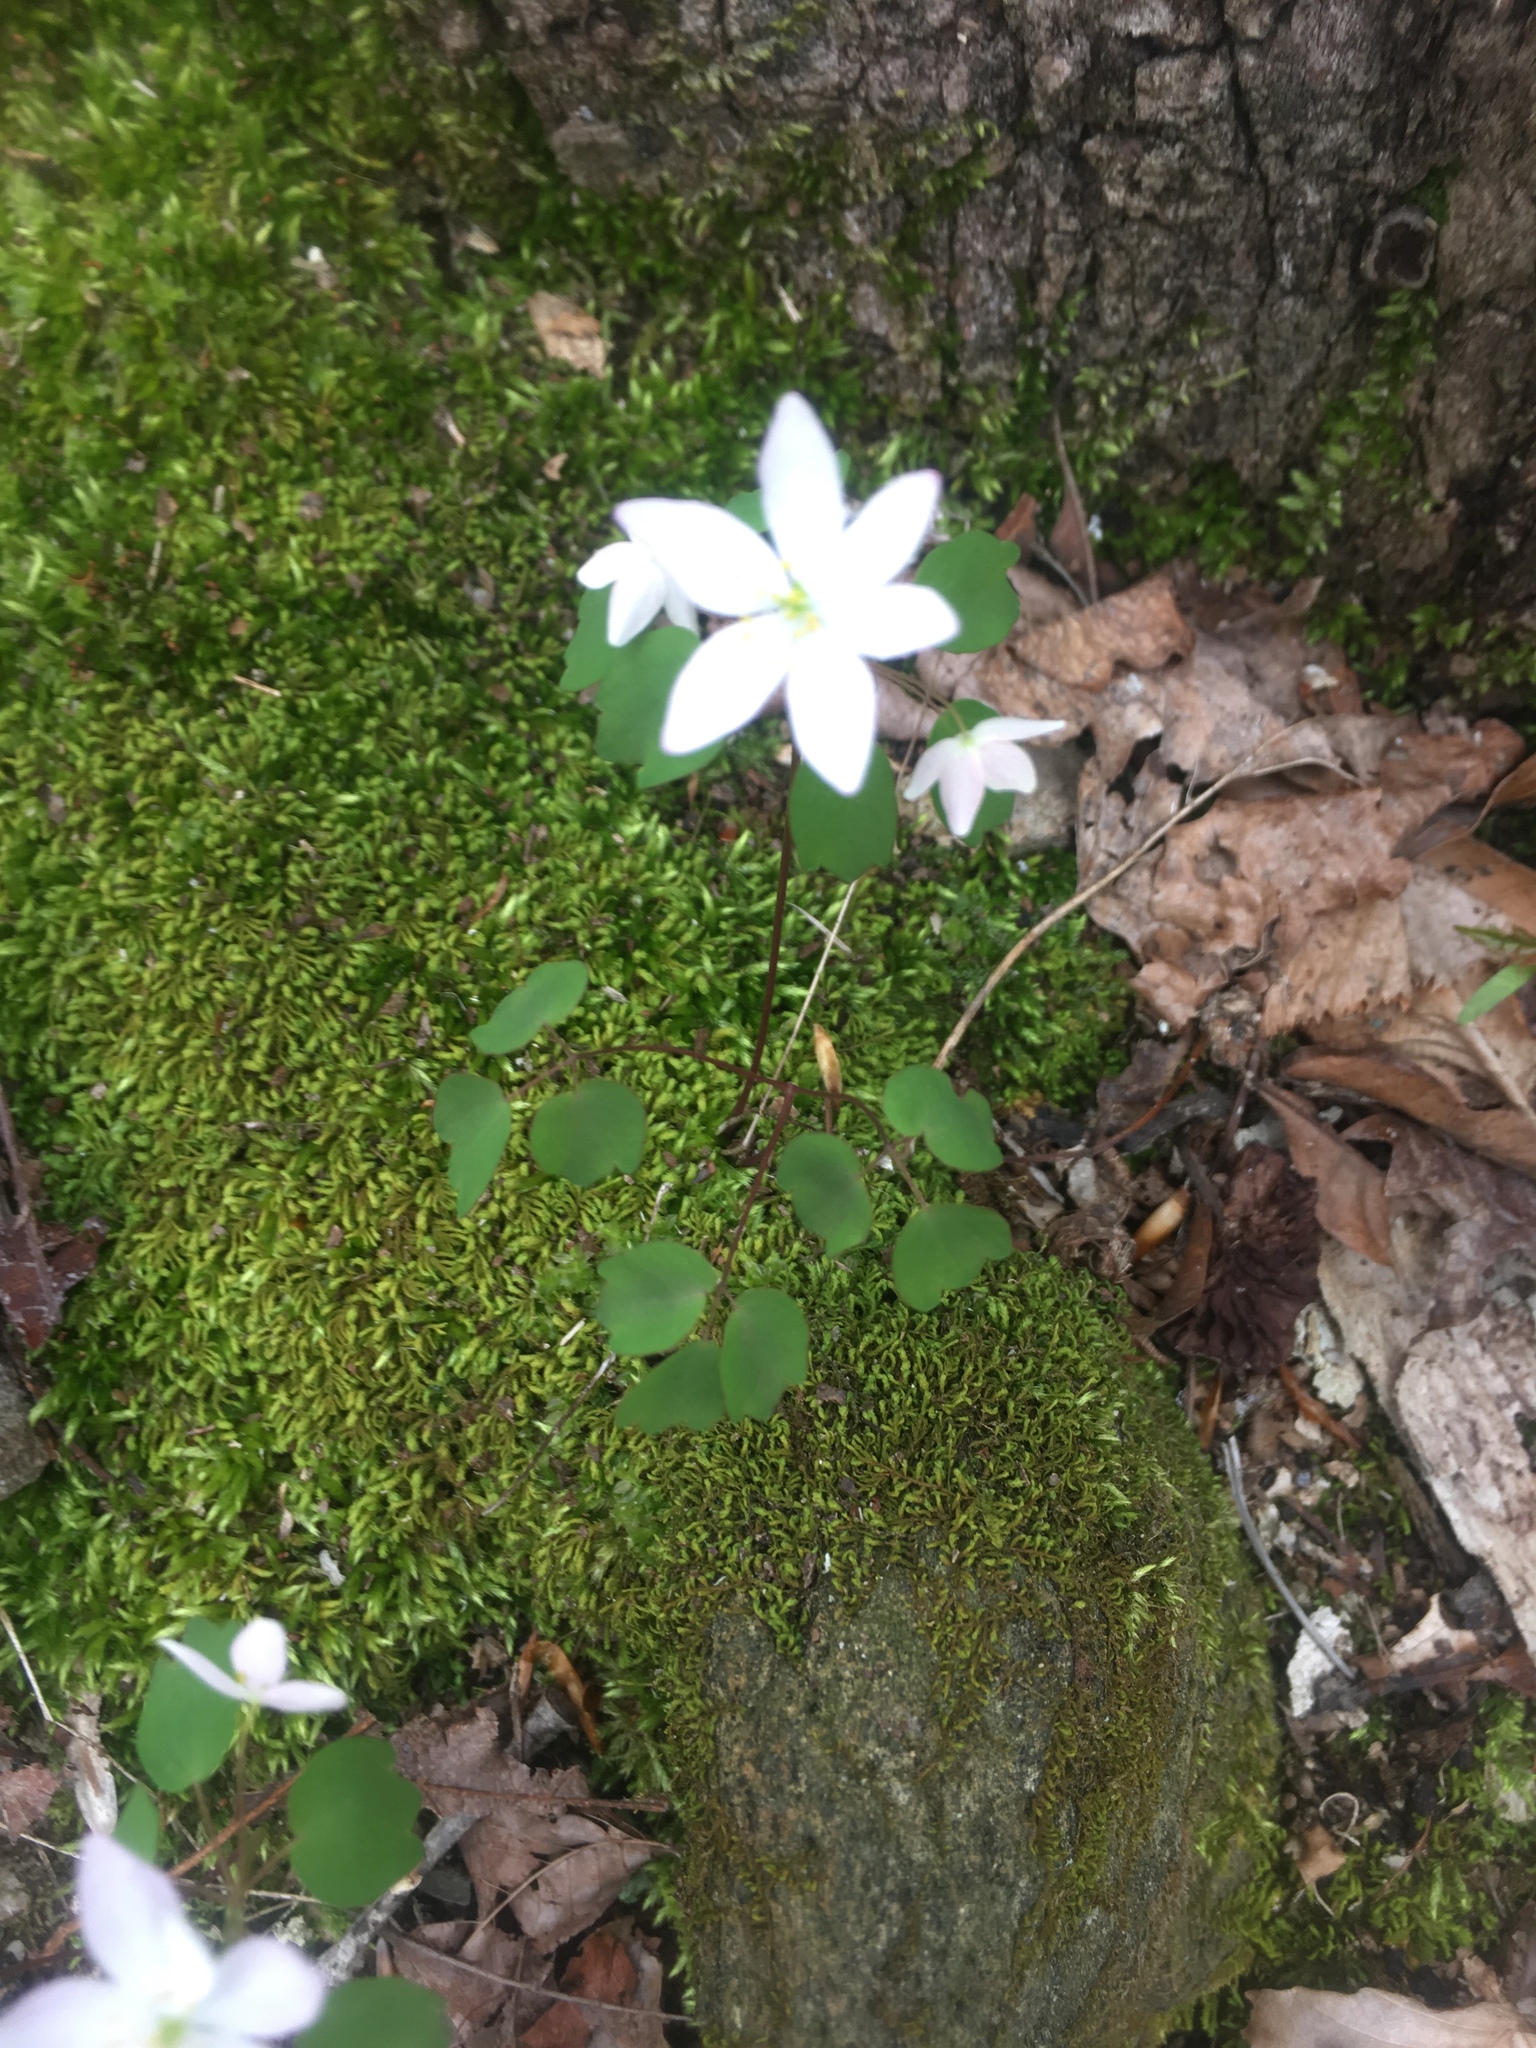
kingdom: Plantae
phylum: Tracheophyta
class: Magnoliopsida
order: Ranunculales
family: Ranunculaceae
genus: Thalictrum
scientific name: Thalictrum thalictroides
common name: Rue-anemone
